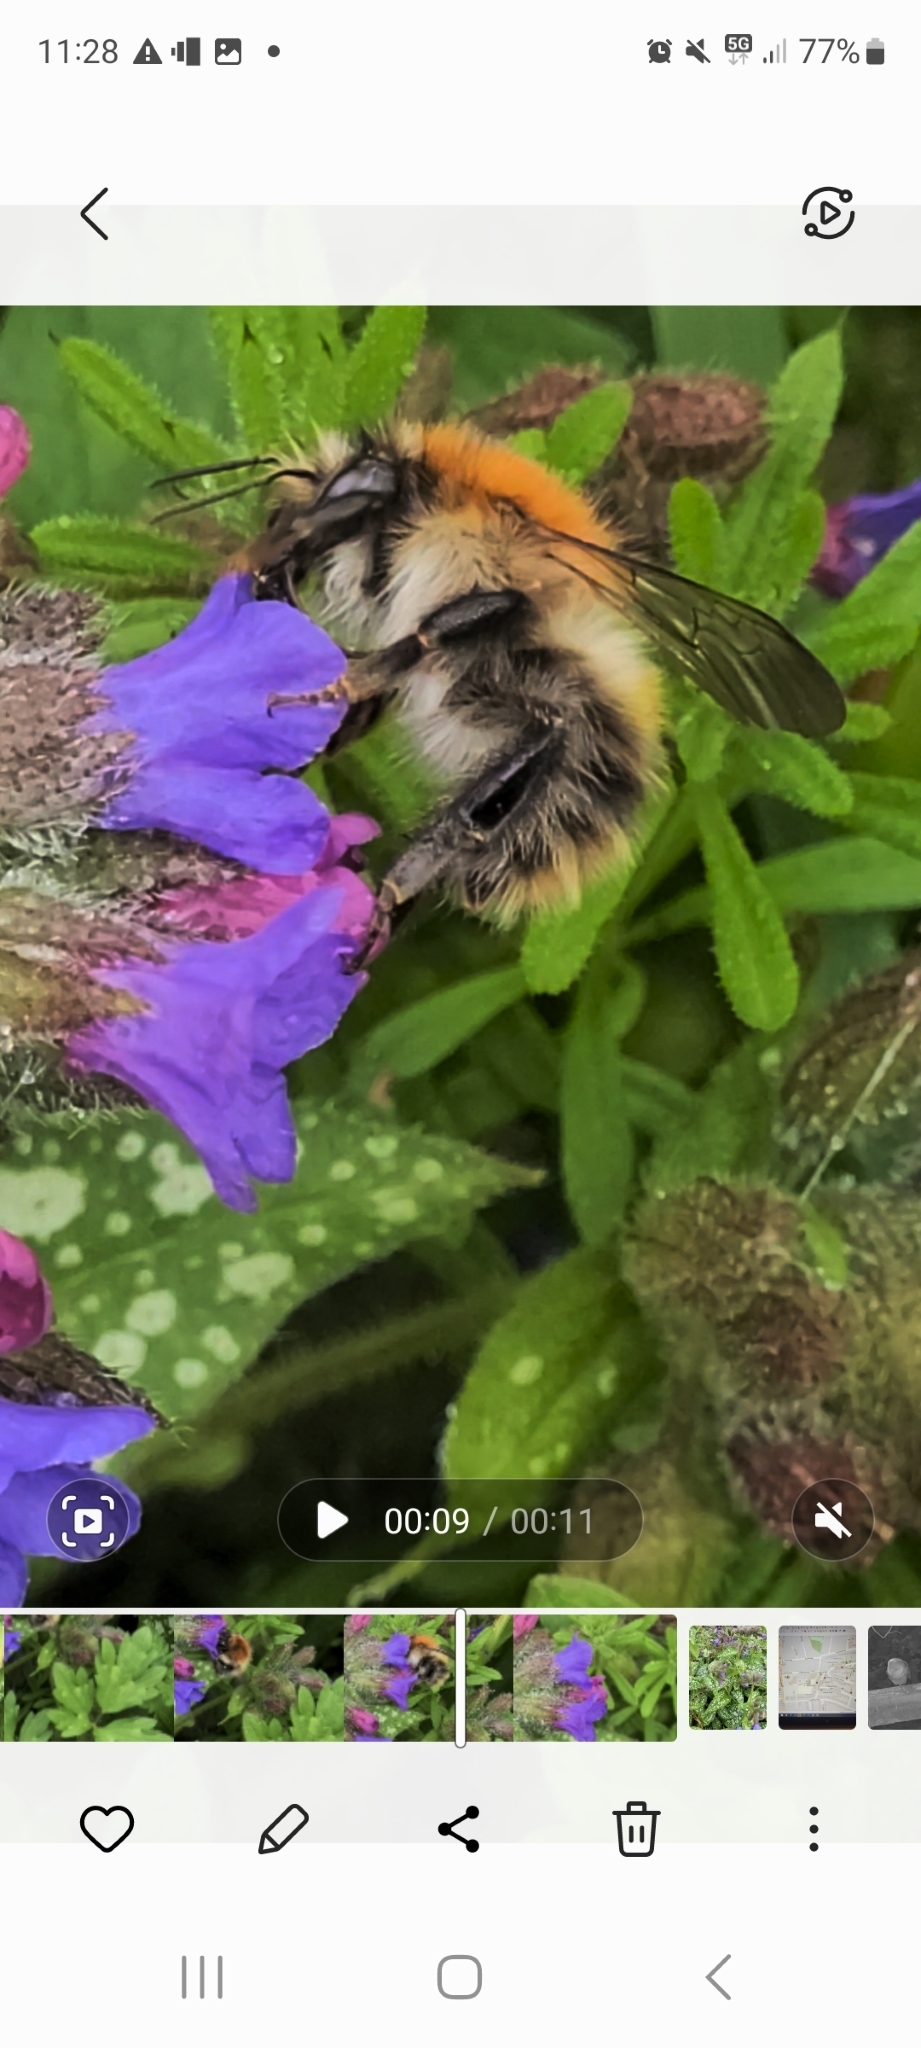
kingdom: Animalia
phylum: Arthropoda
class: Insecta
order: Hymenoptera
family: Apidae
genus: Bombus
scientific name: Bombus pascuorum
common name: Common carder bee
